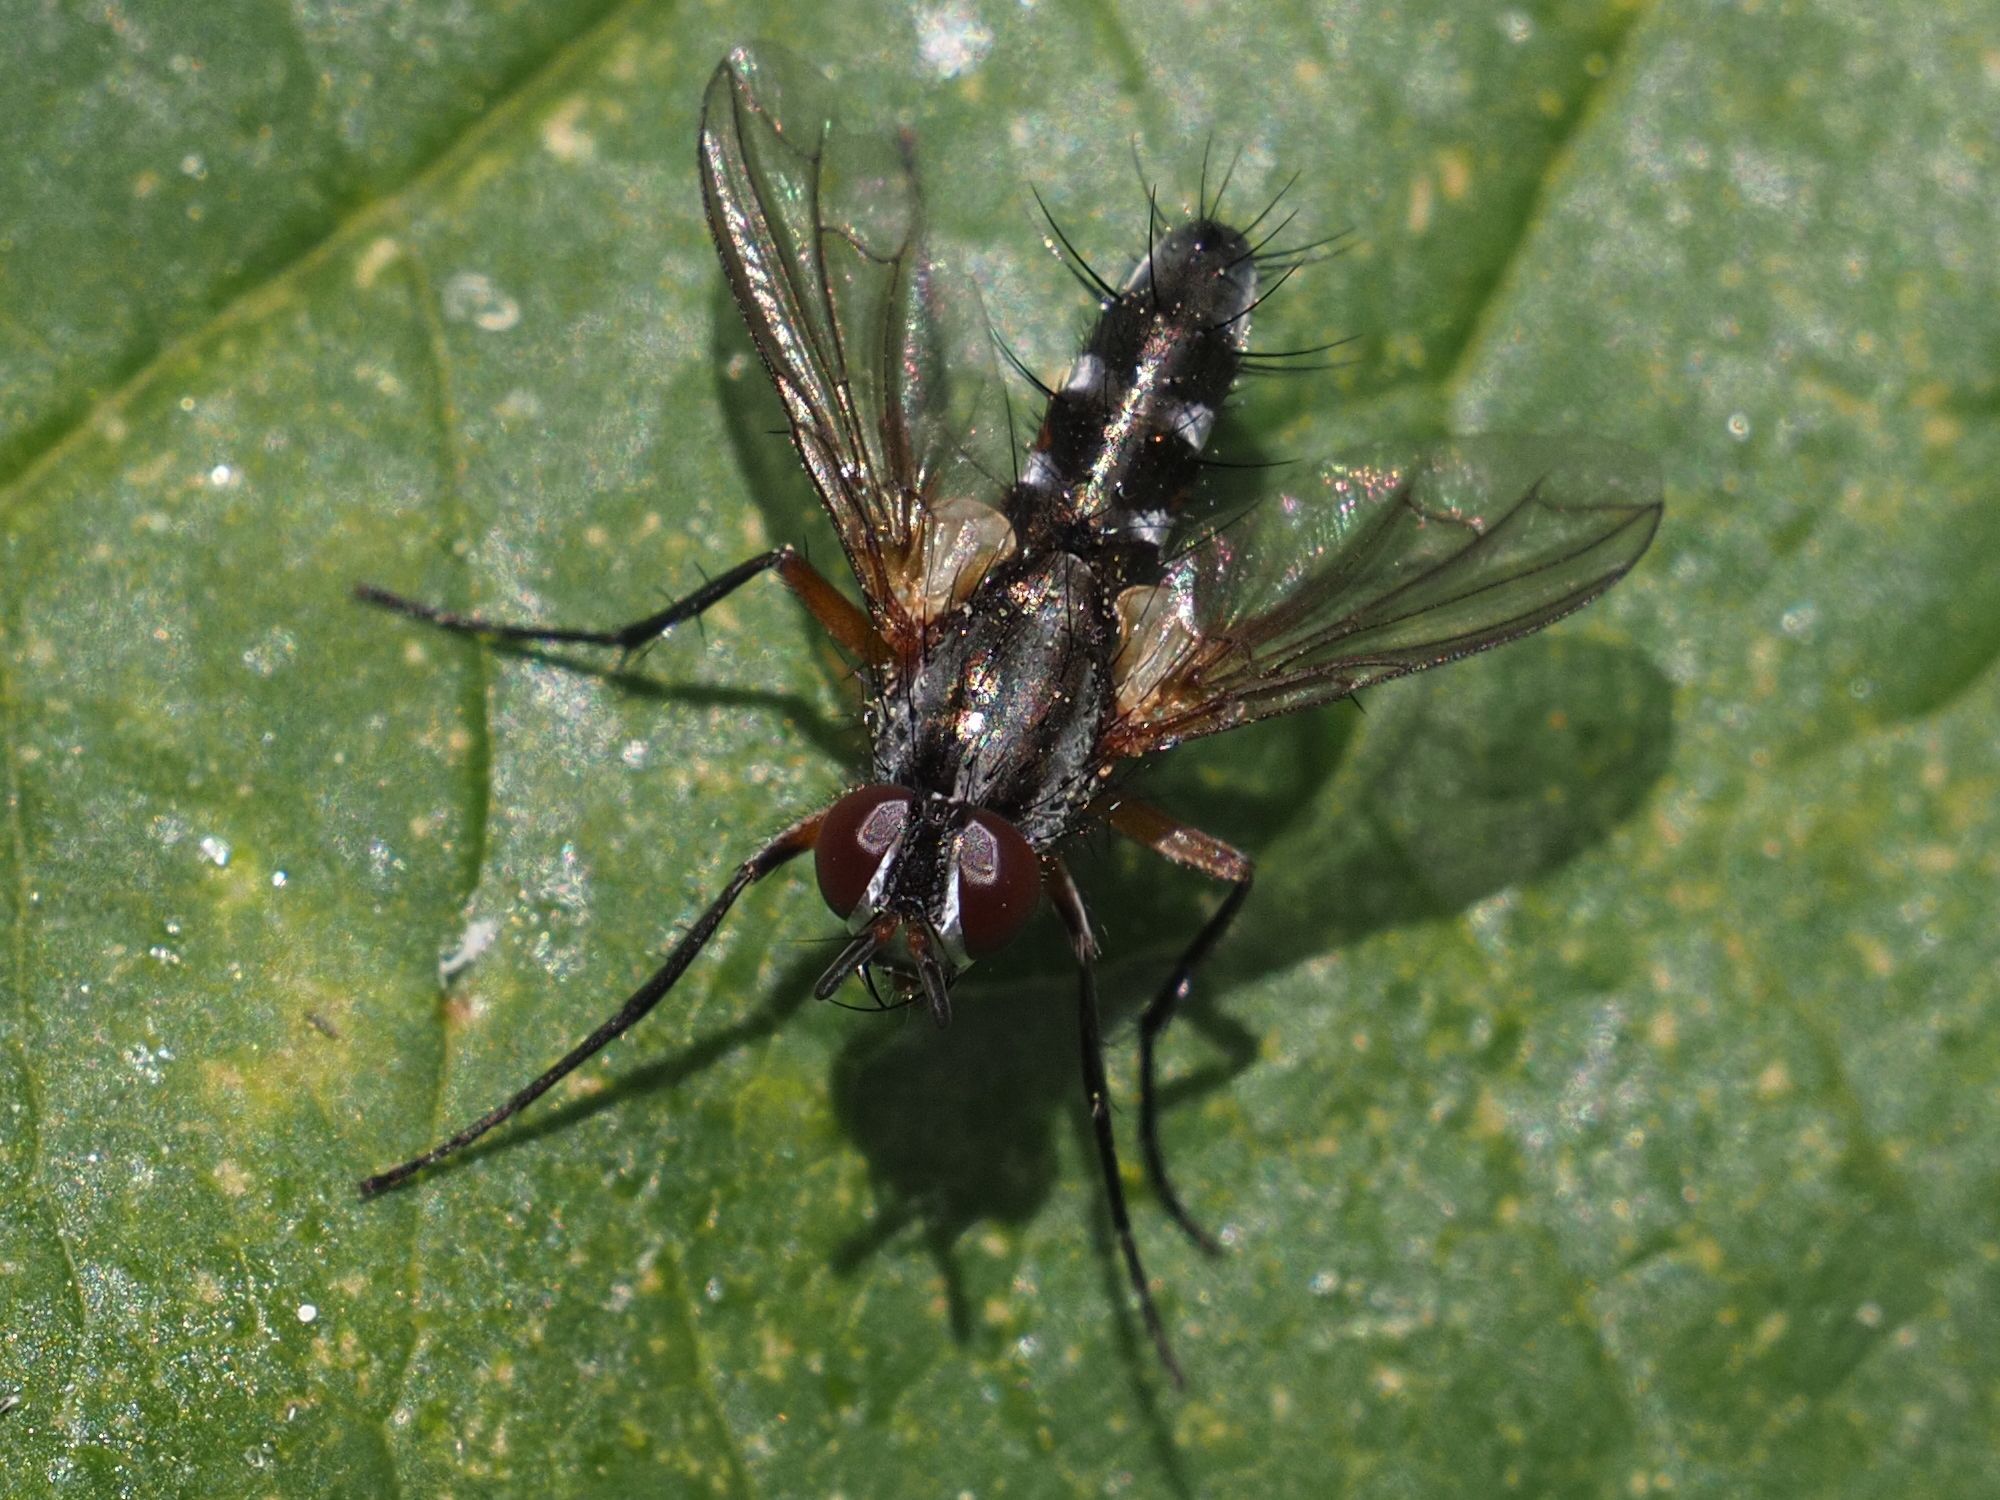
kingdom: Animalia
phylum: Arthropoda
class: Insecta
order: Diptera
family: Tachinidae
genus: Mintho
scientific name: Mintho rufiventris
